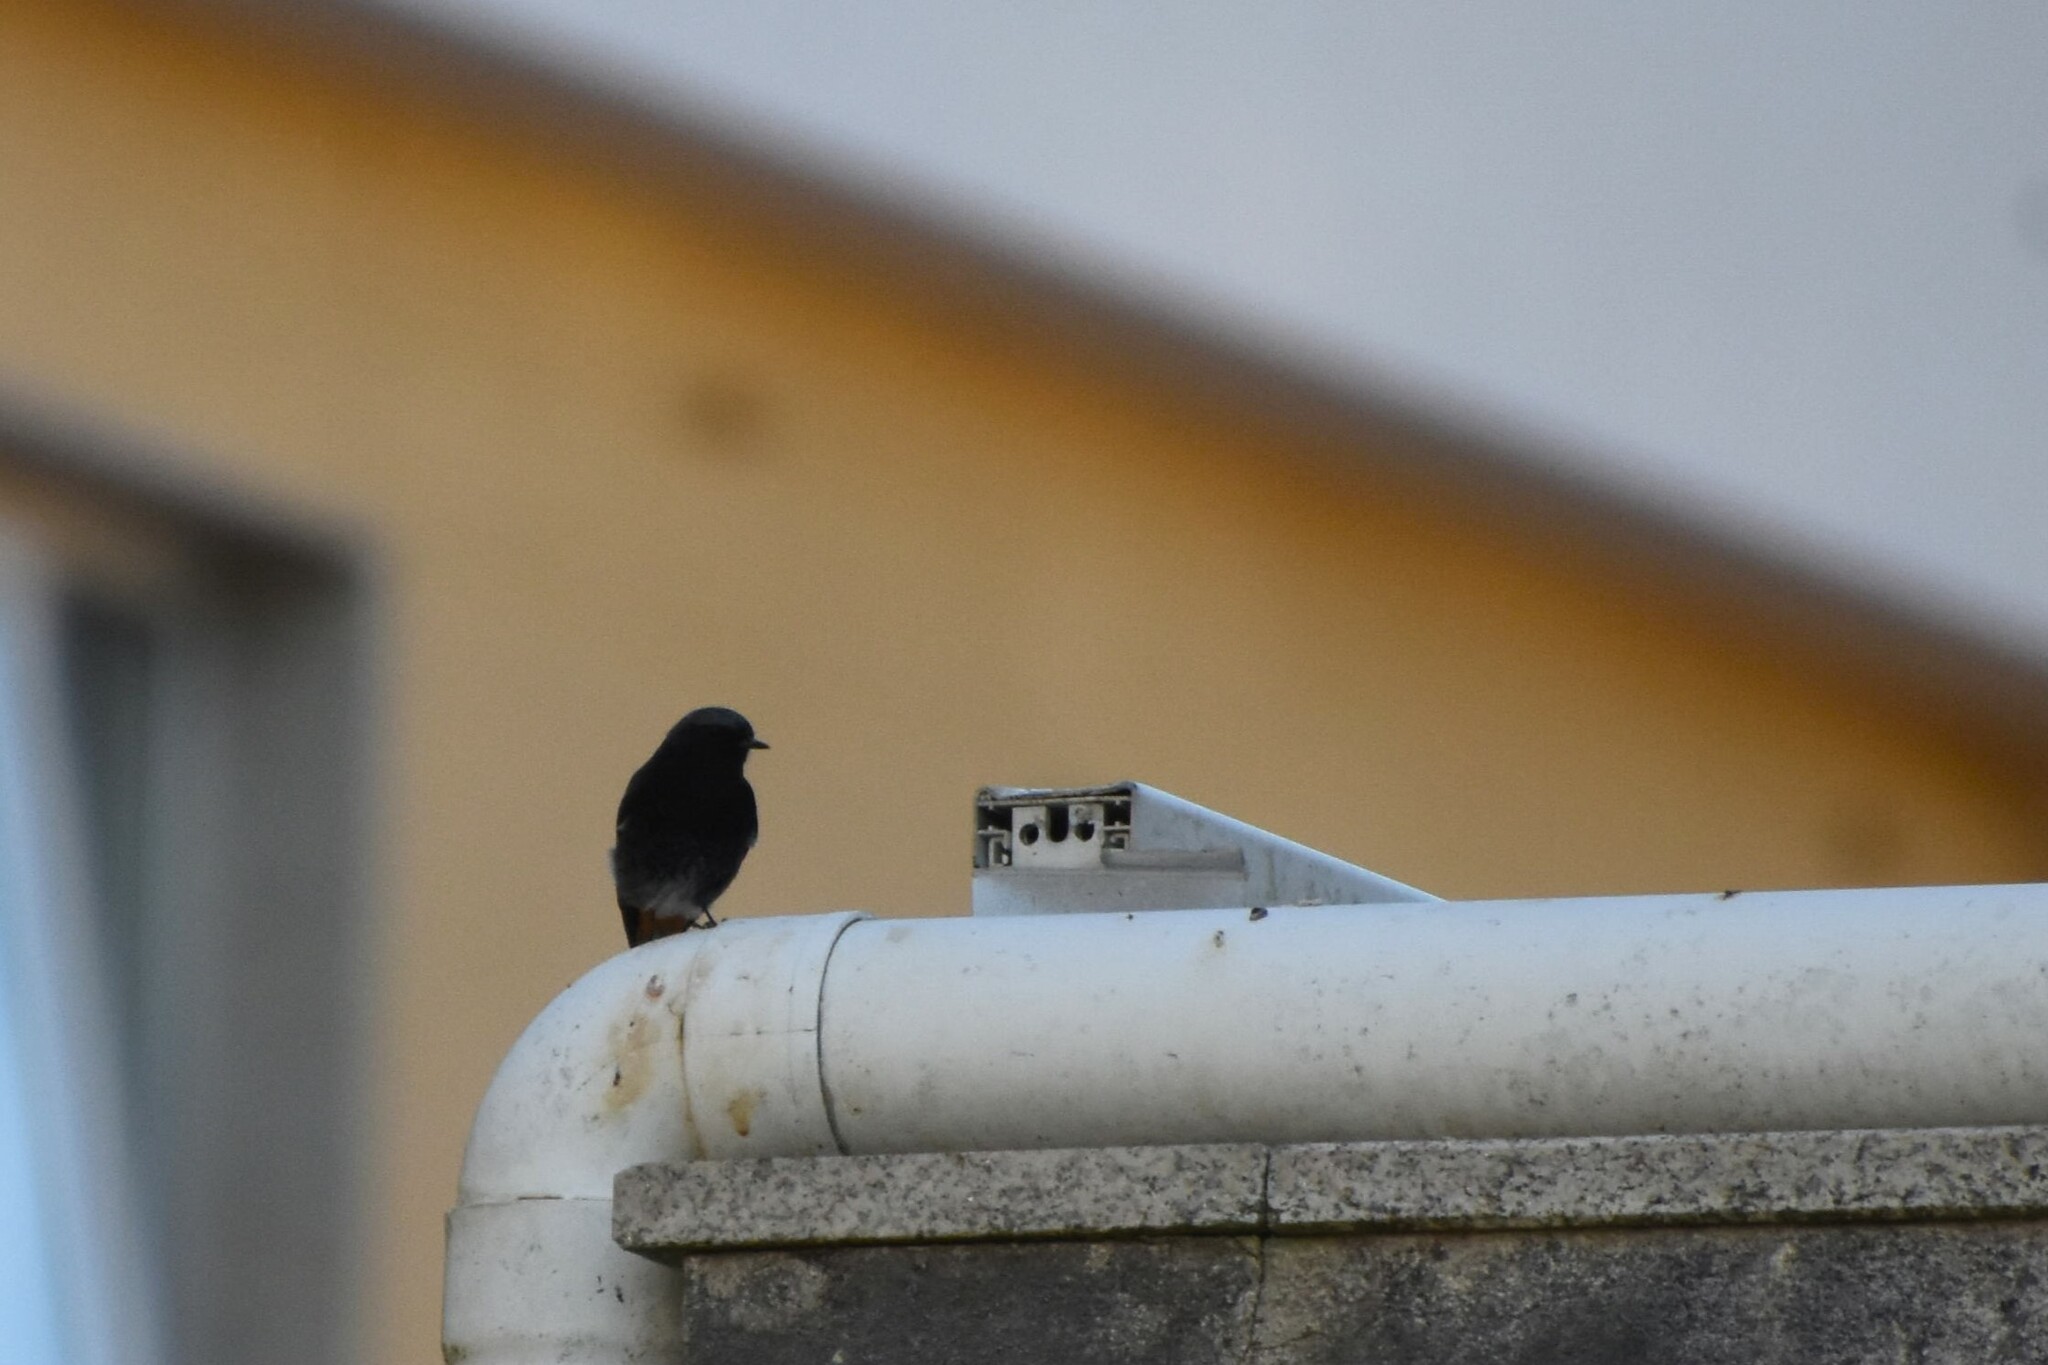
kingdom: Animalia
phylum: Chordata
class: Aves
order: Passeriformes
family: Muscicapidae
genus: Phoenicurus
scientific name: Phoenicurus ochruros
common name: Black redstart
